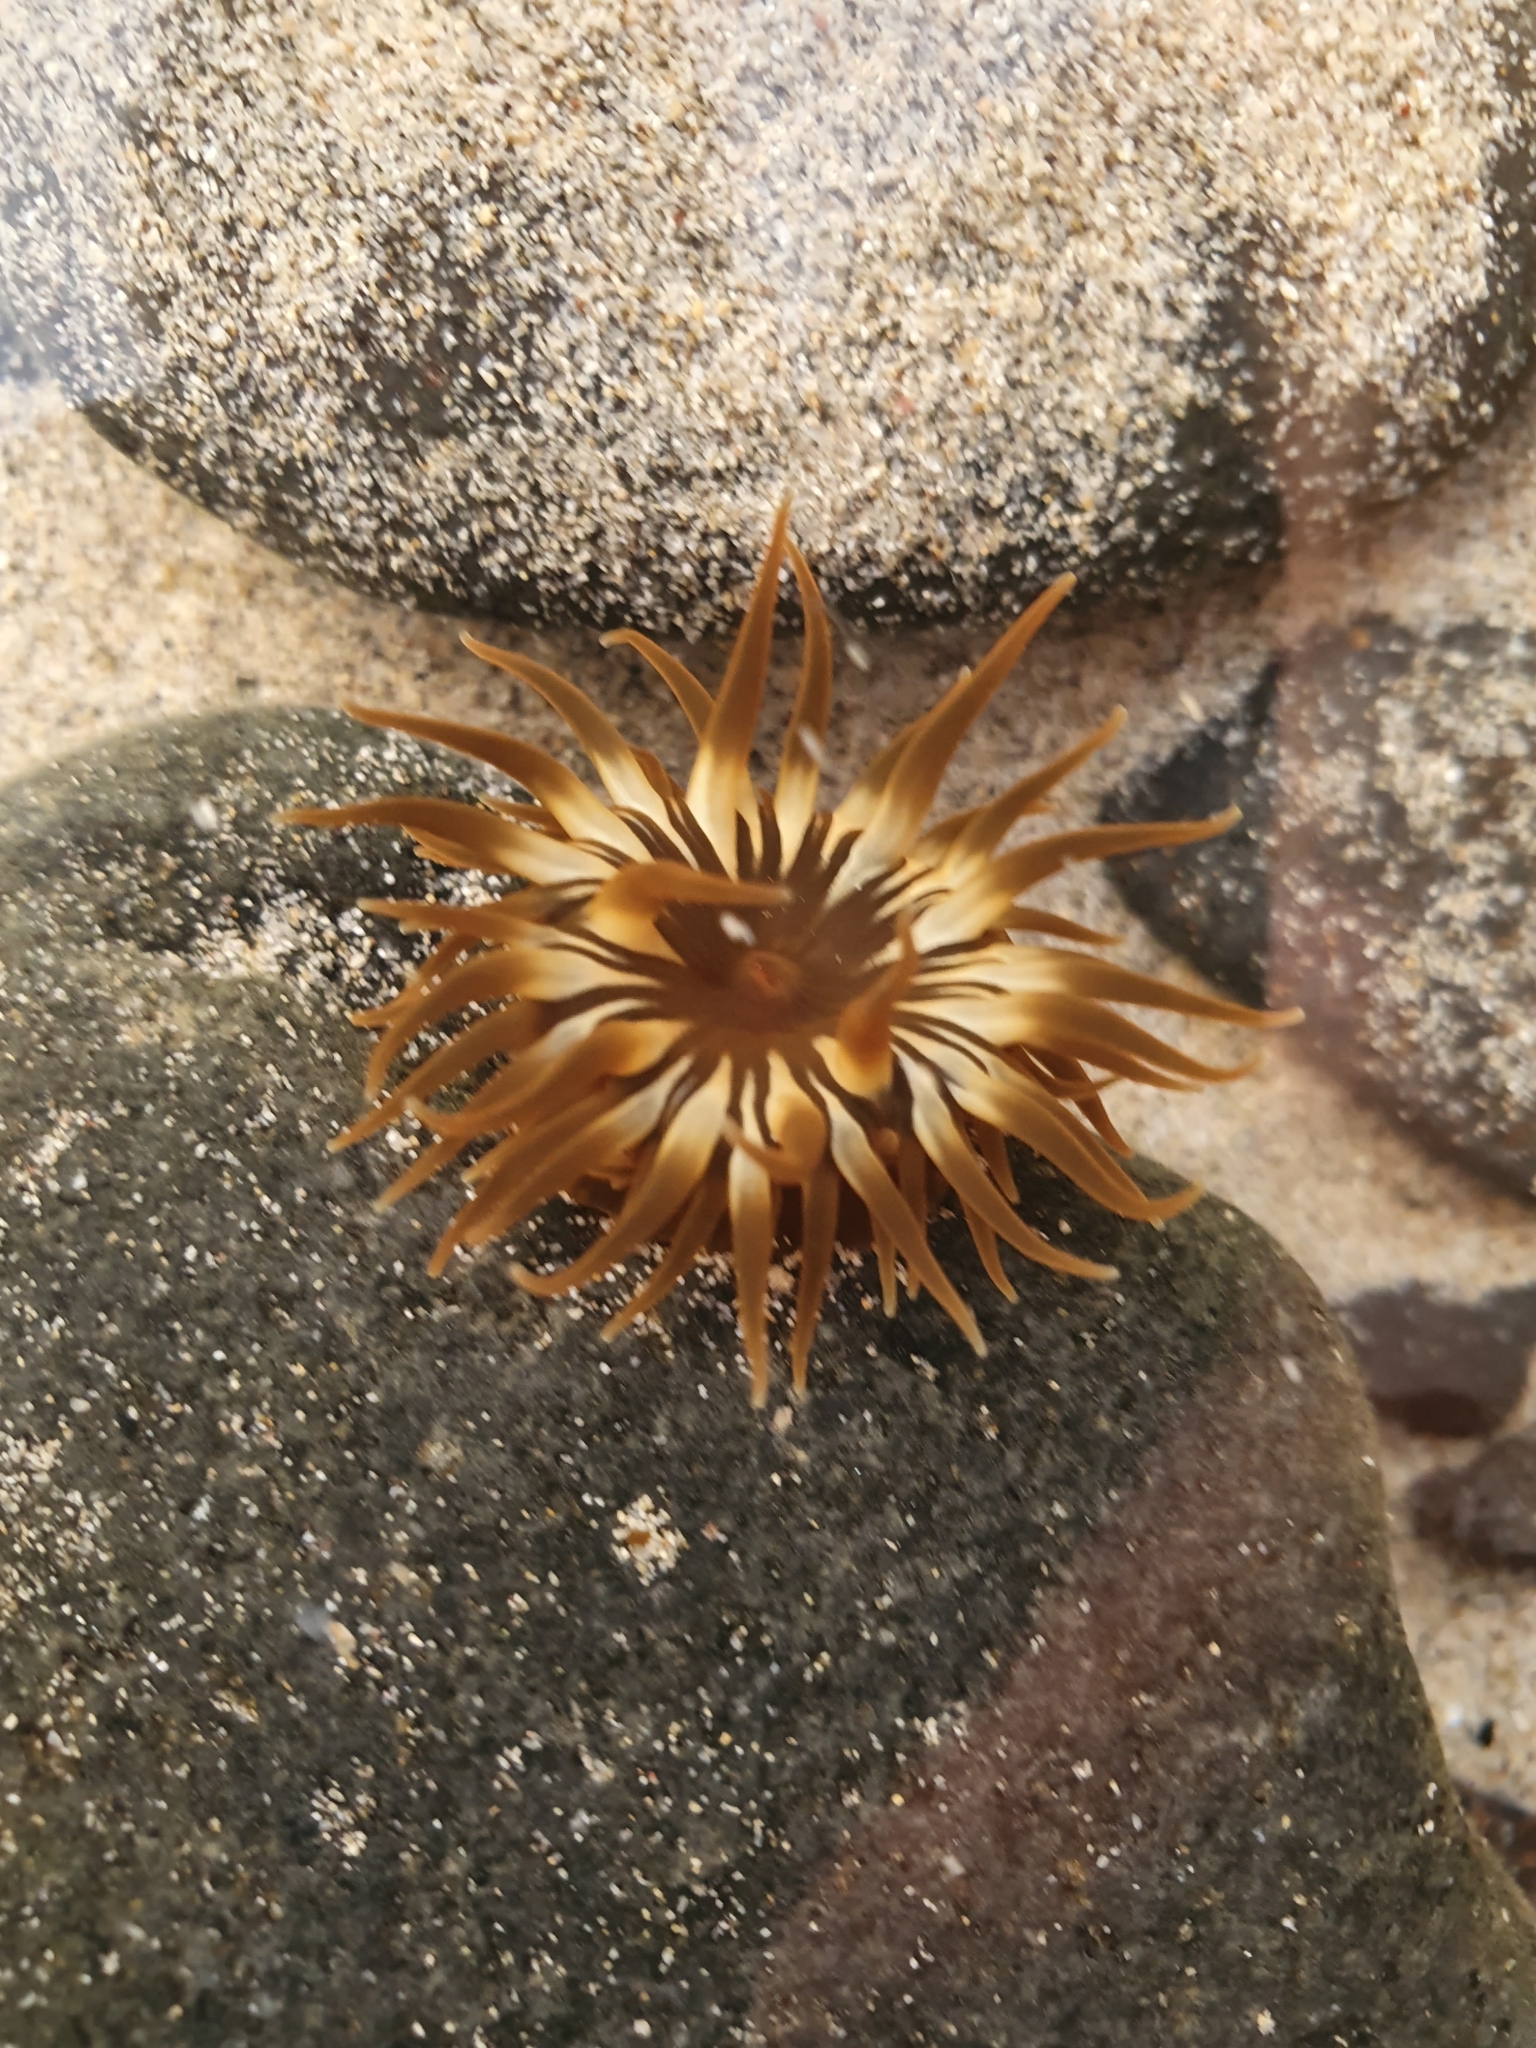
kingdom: Animalia
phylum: Cnidaria
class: Anthozoa
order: Actiniaria
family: Actiniidae
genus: Anemonia
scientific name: Anemonia sargassensis
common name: Sargassum anemone
